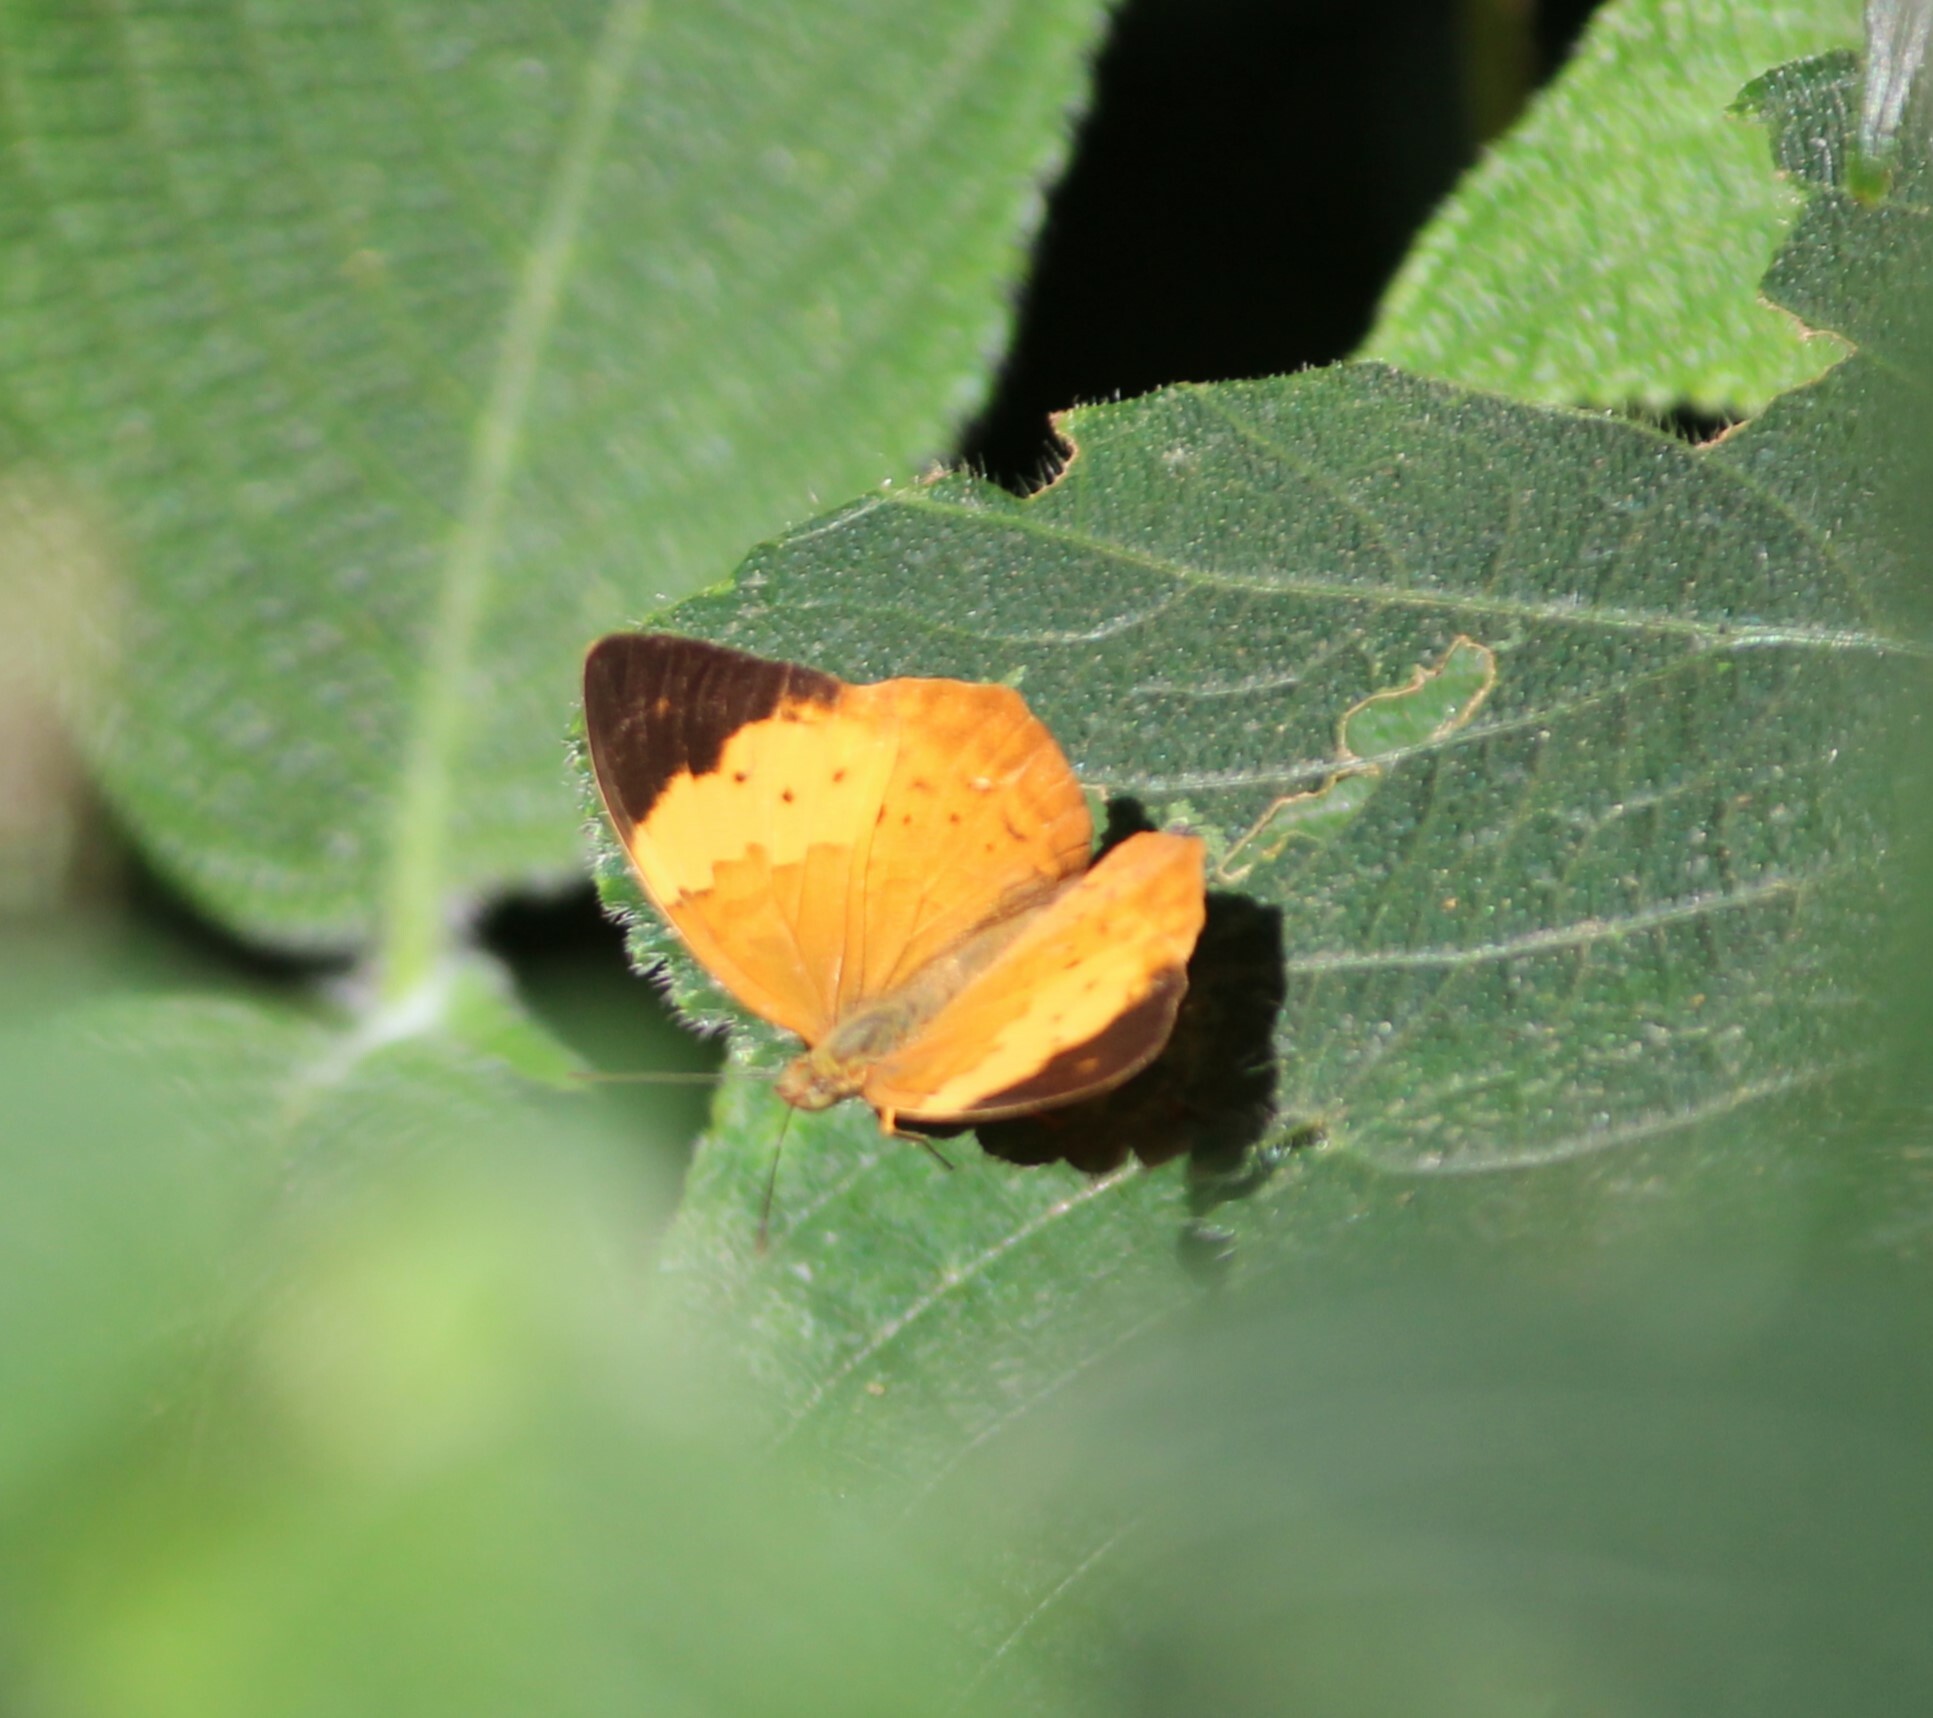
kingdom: Animalia
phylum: Arthropoda
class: Insecta
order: Lepidoptera
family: Nymphalidae
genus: Cupha
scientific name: Cupha erymanthis
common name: Rustic
